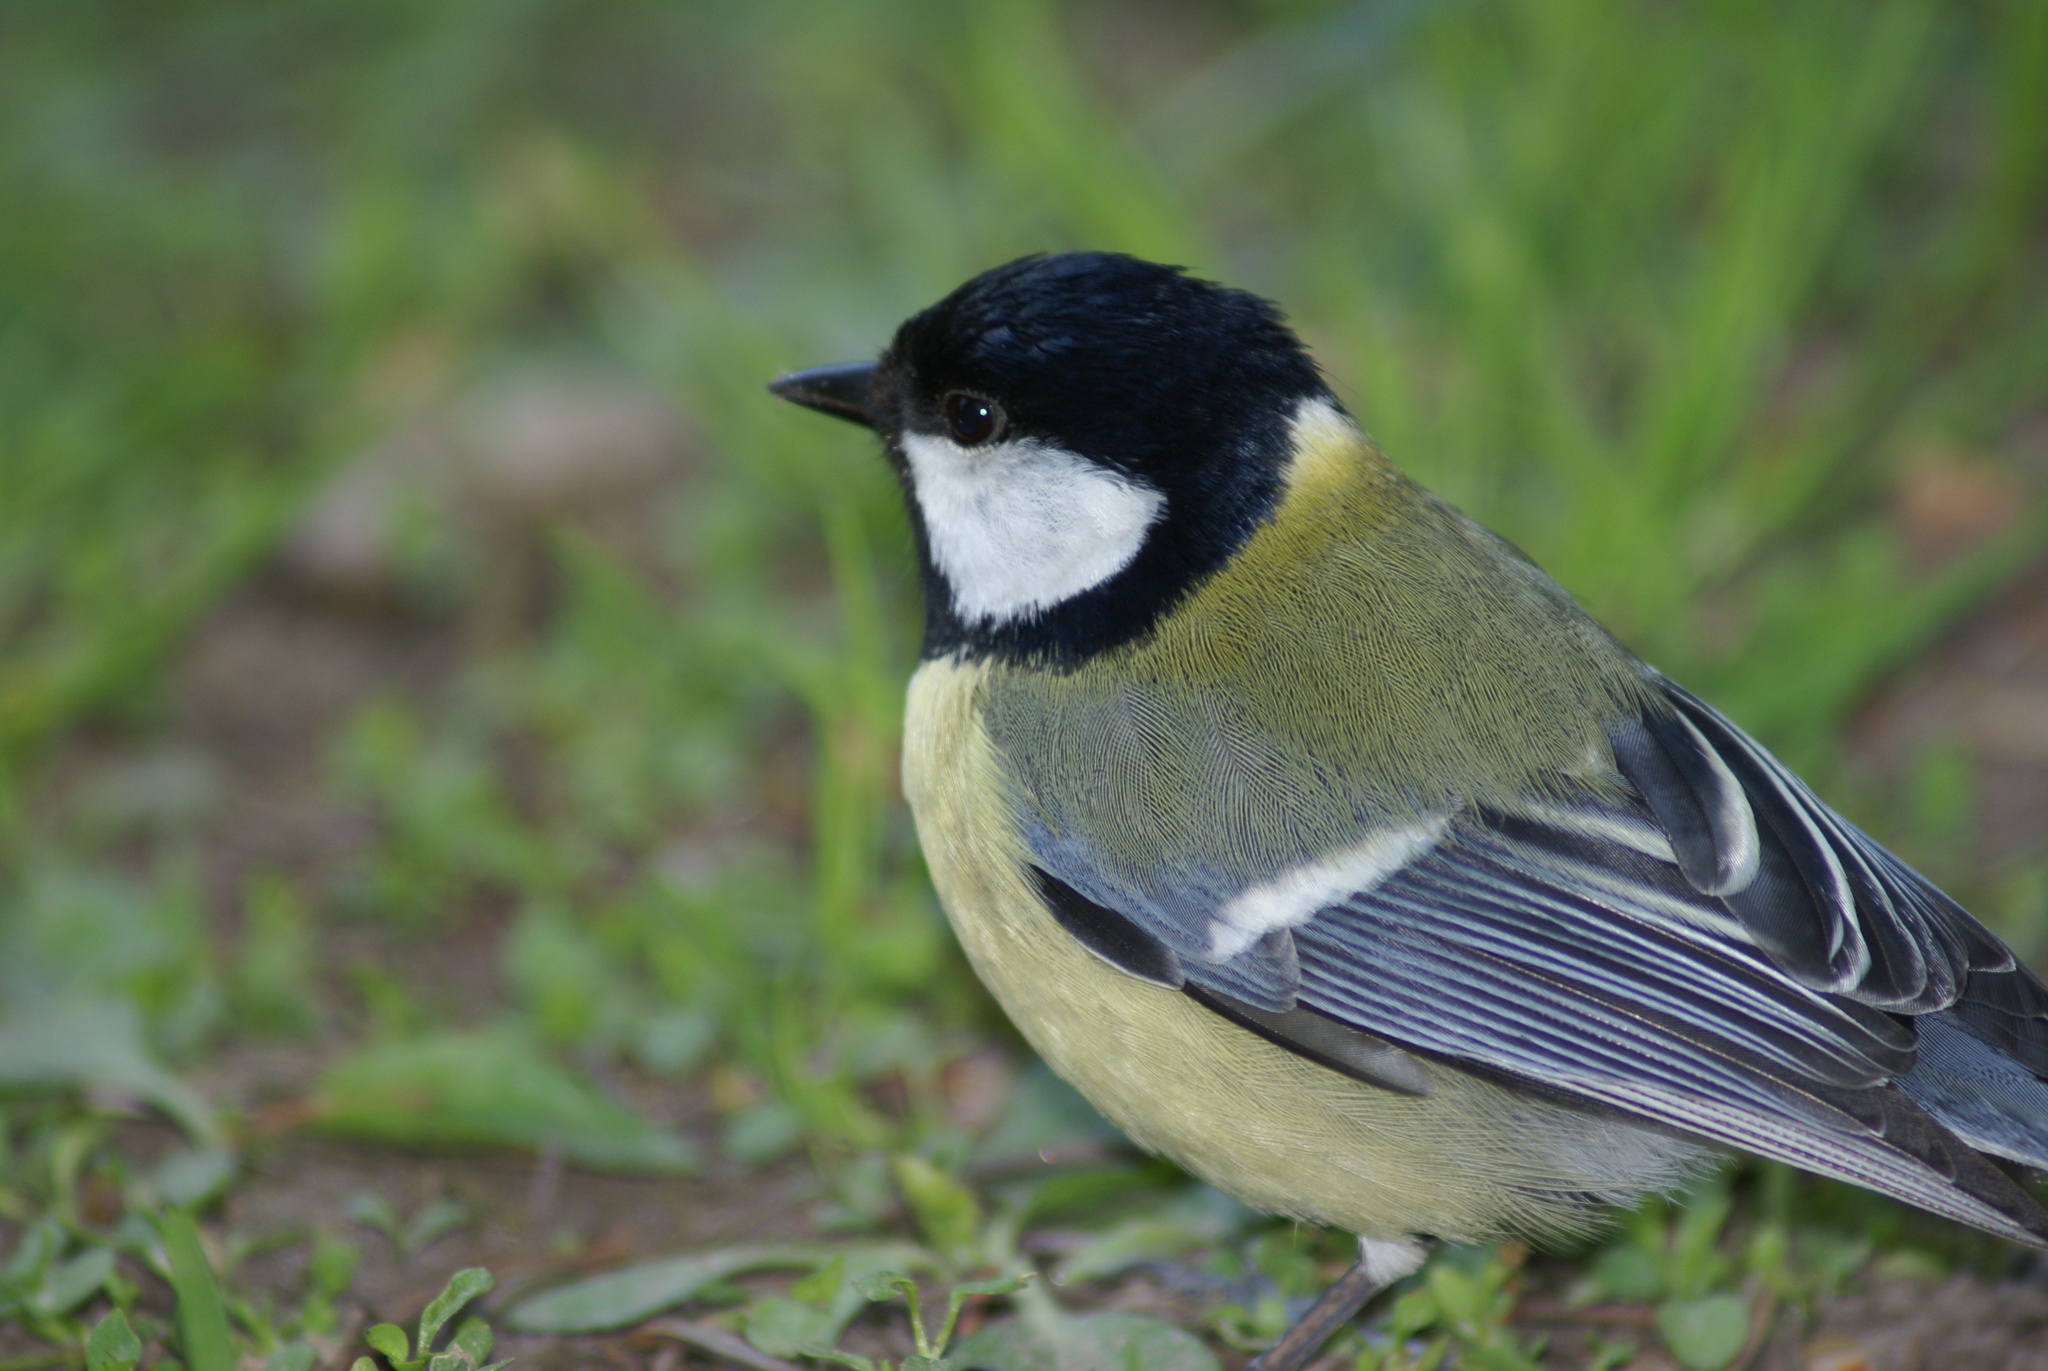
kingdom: Animalia
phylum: Chordata
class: Aves
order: Passeriformes
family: Paridae
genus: Parus
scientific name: Parus major
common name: Great tit
